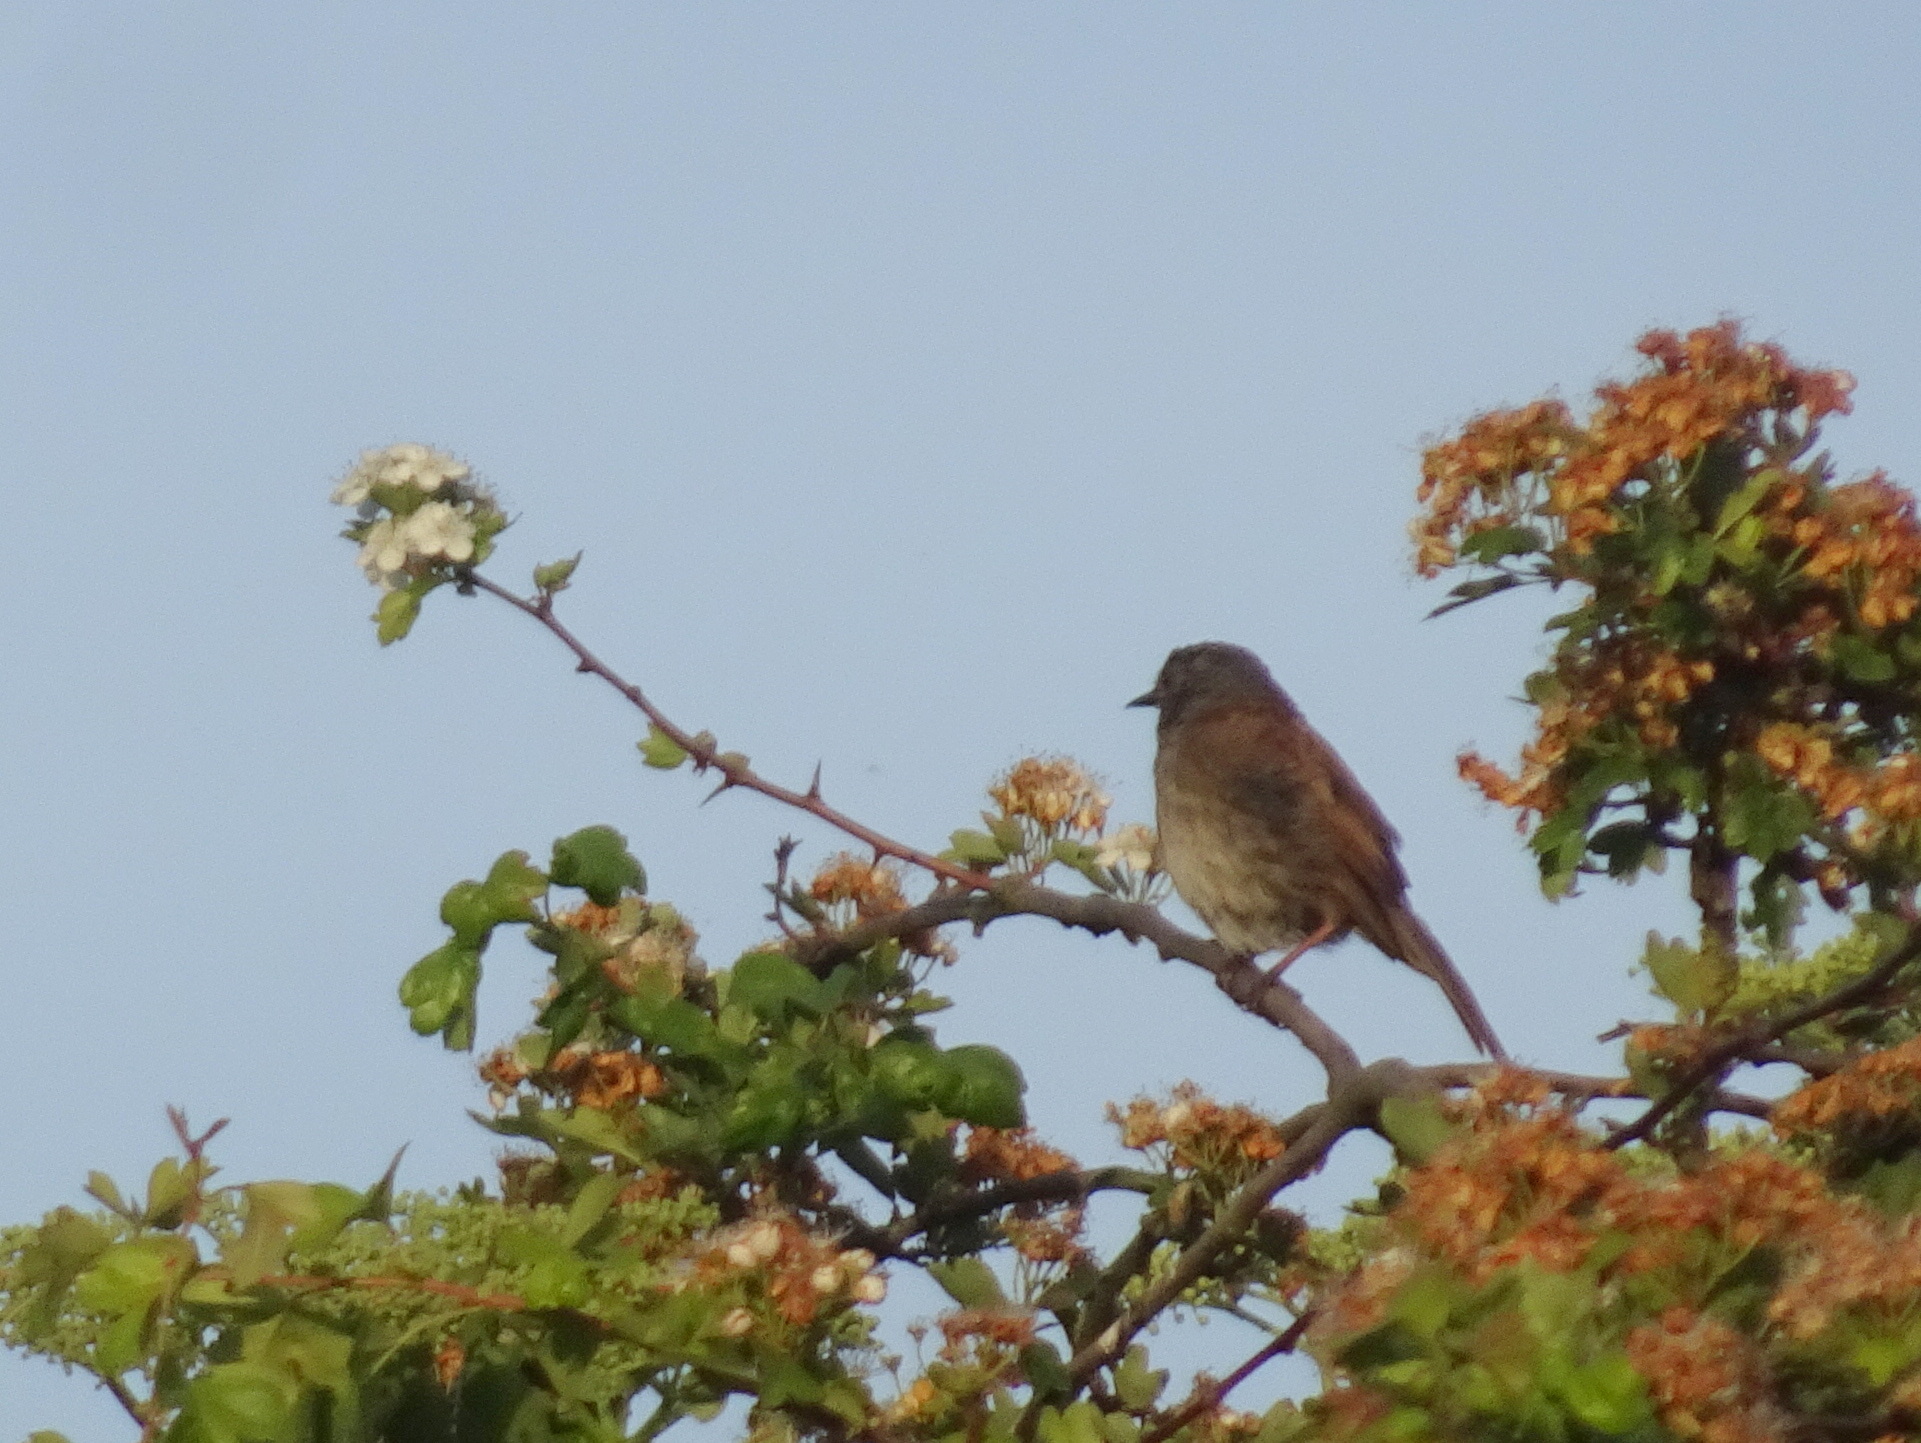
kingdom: Animalia
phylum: Chordata
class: Aves
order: Passeriformes
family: Prunellidae
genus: Prunella
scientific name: Prunella modularis
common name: Dunnock
